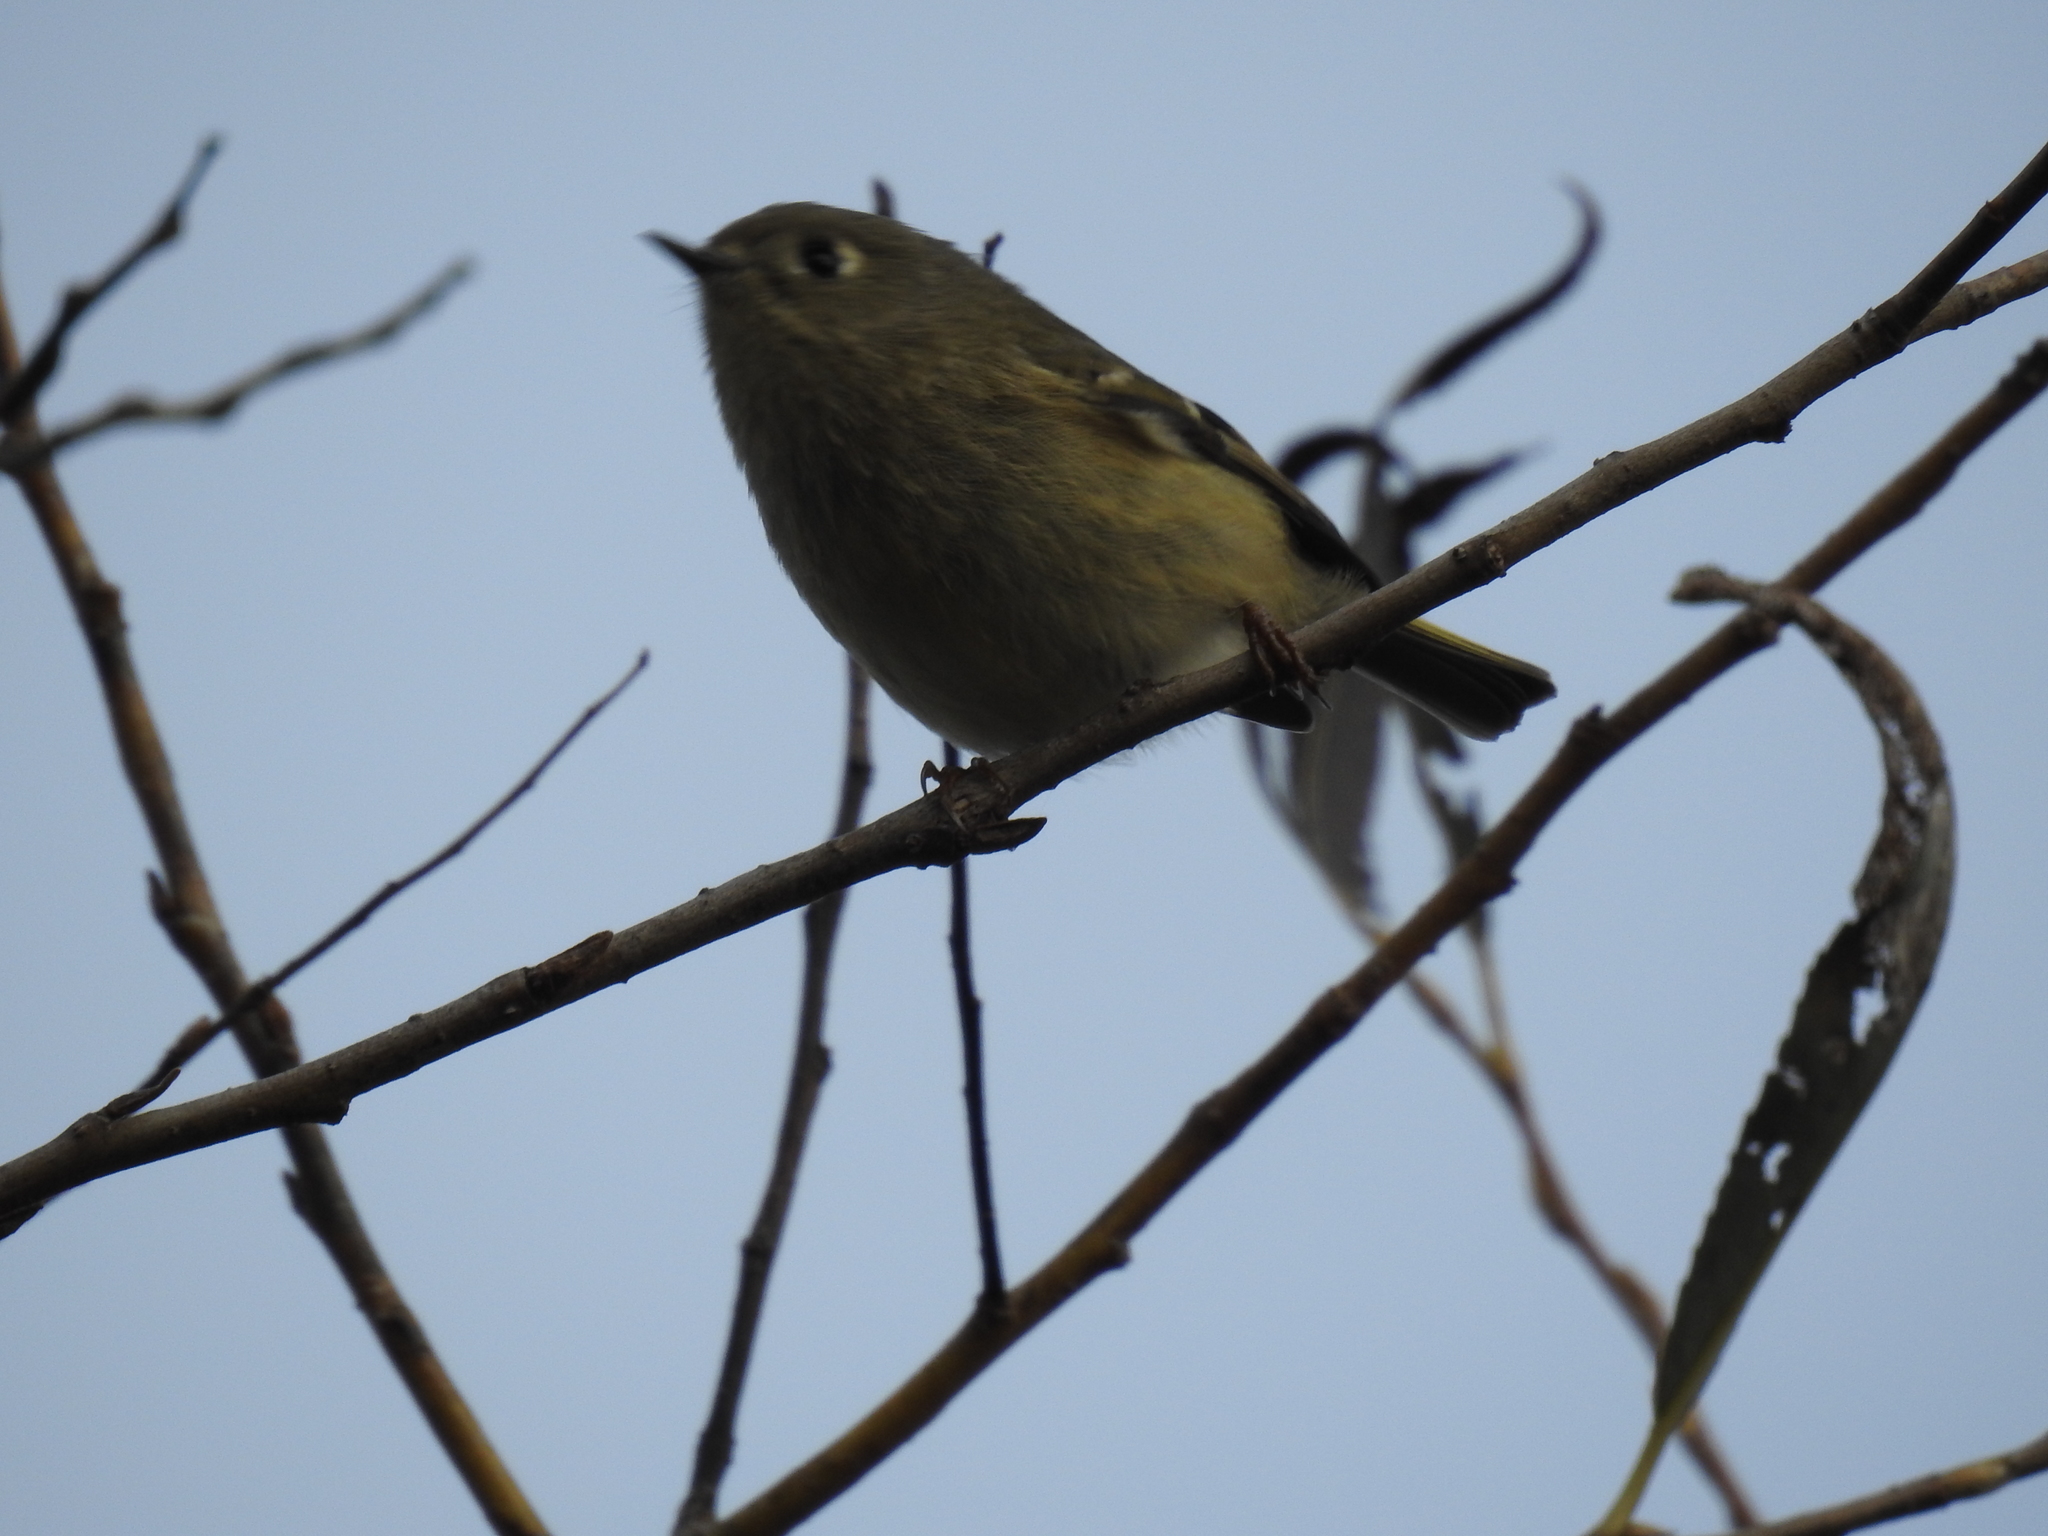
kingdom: Animalia
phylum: Chordata
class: Aves
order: Passeriformes
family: Regulidae
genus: Regulus
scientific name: Regulus calendula
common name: Ruby-crowned kinglet
